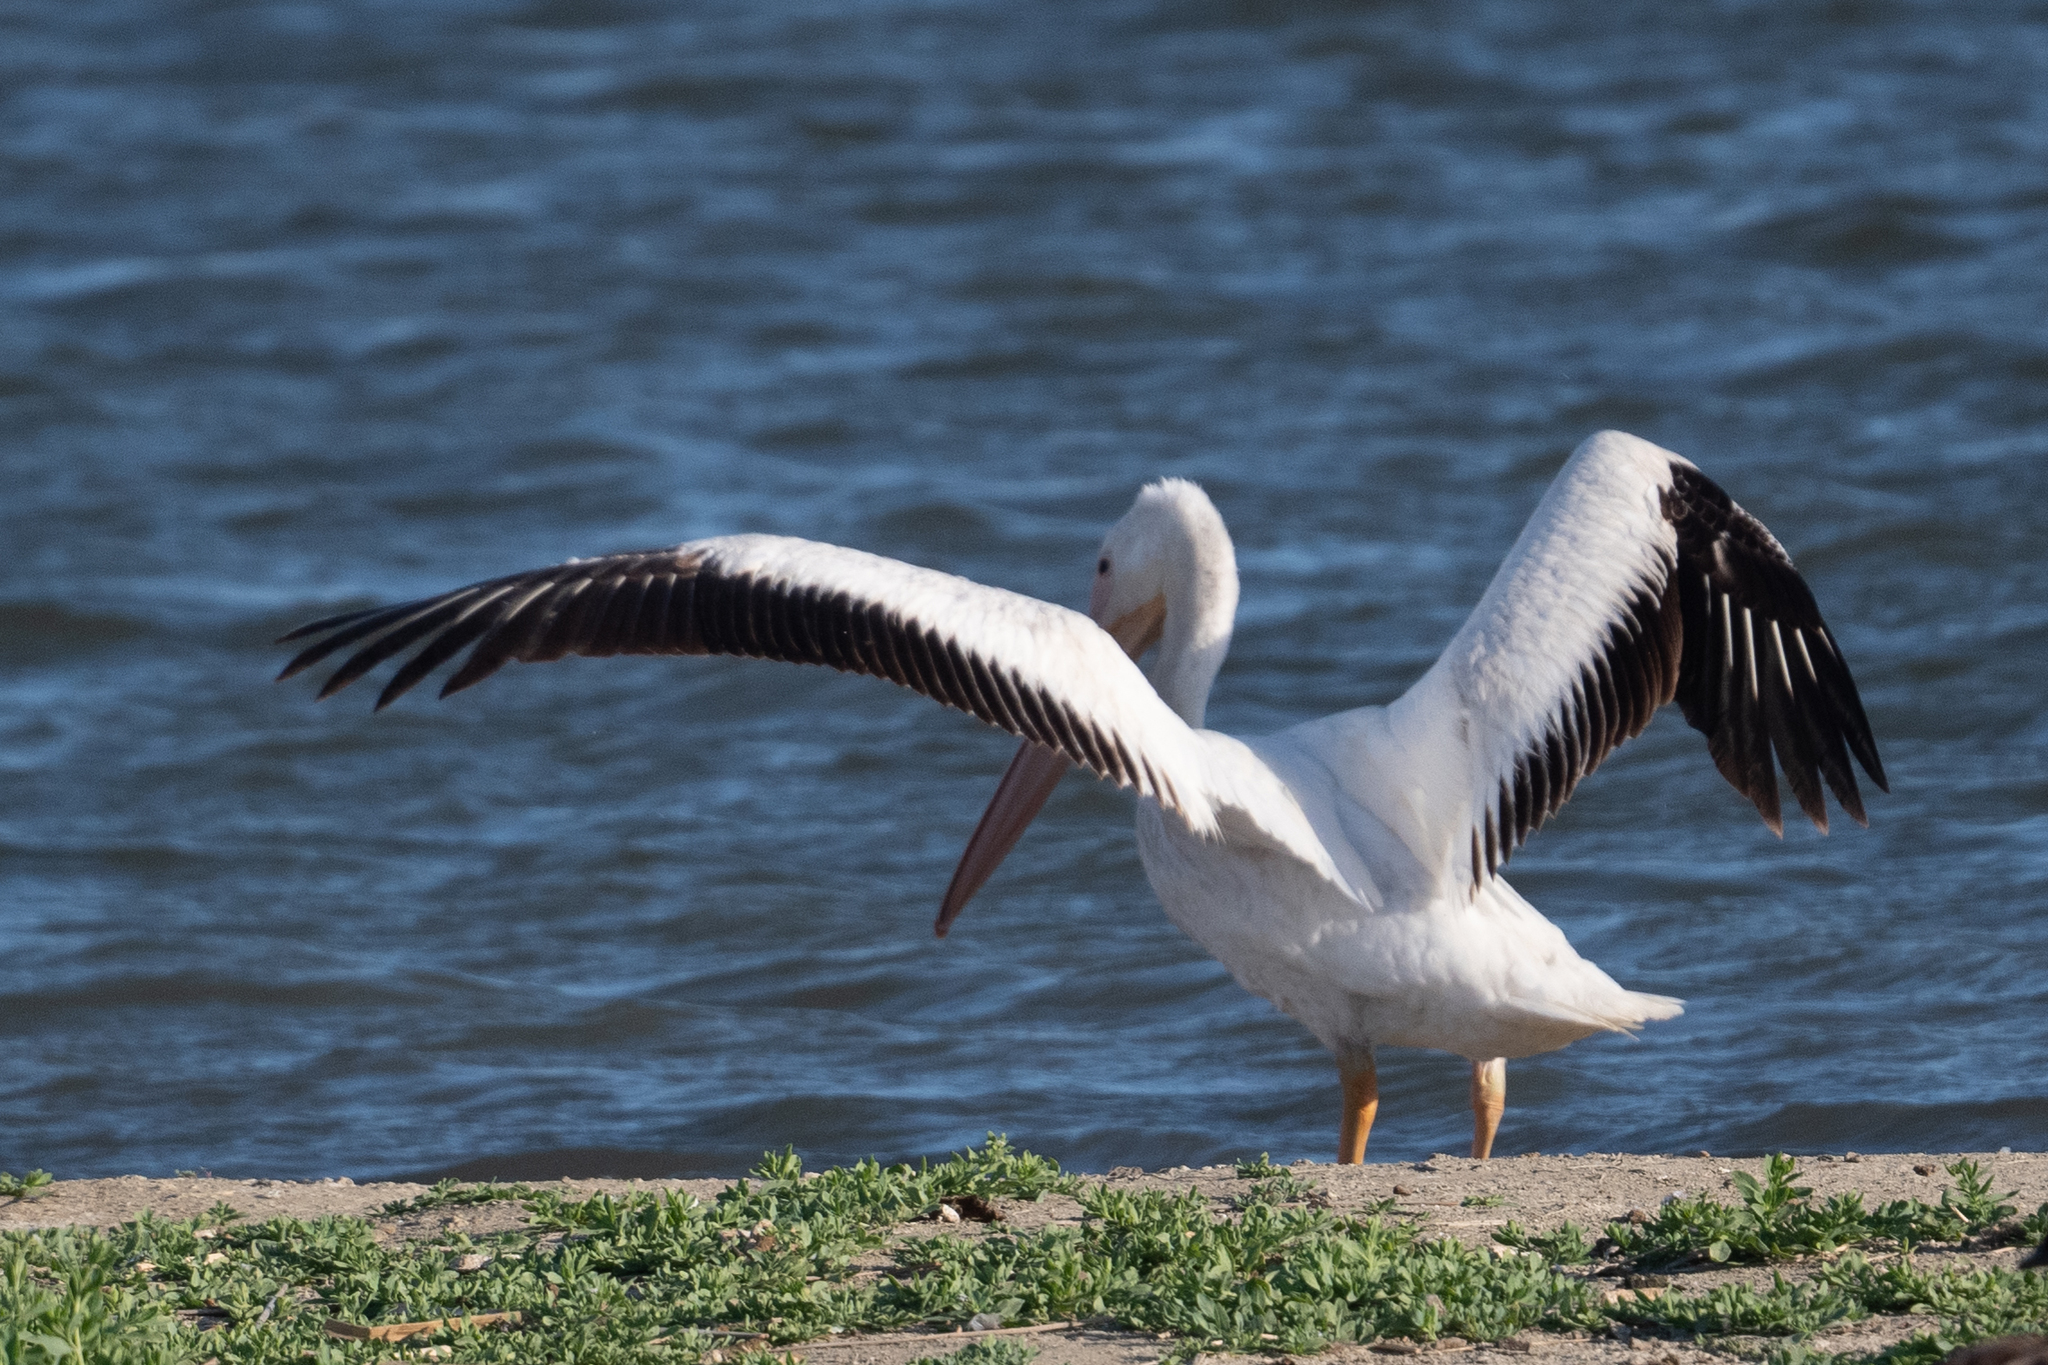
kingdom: Animalia
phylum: Chordata
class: Aves
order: Pelecaniformes
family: Pelecanidae
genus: Pelecanus
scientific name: Pelecanus erythrorhynchos
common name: American white pelican
